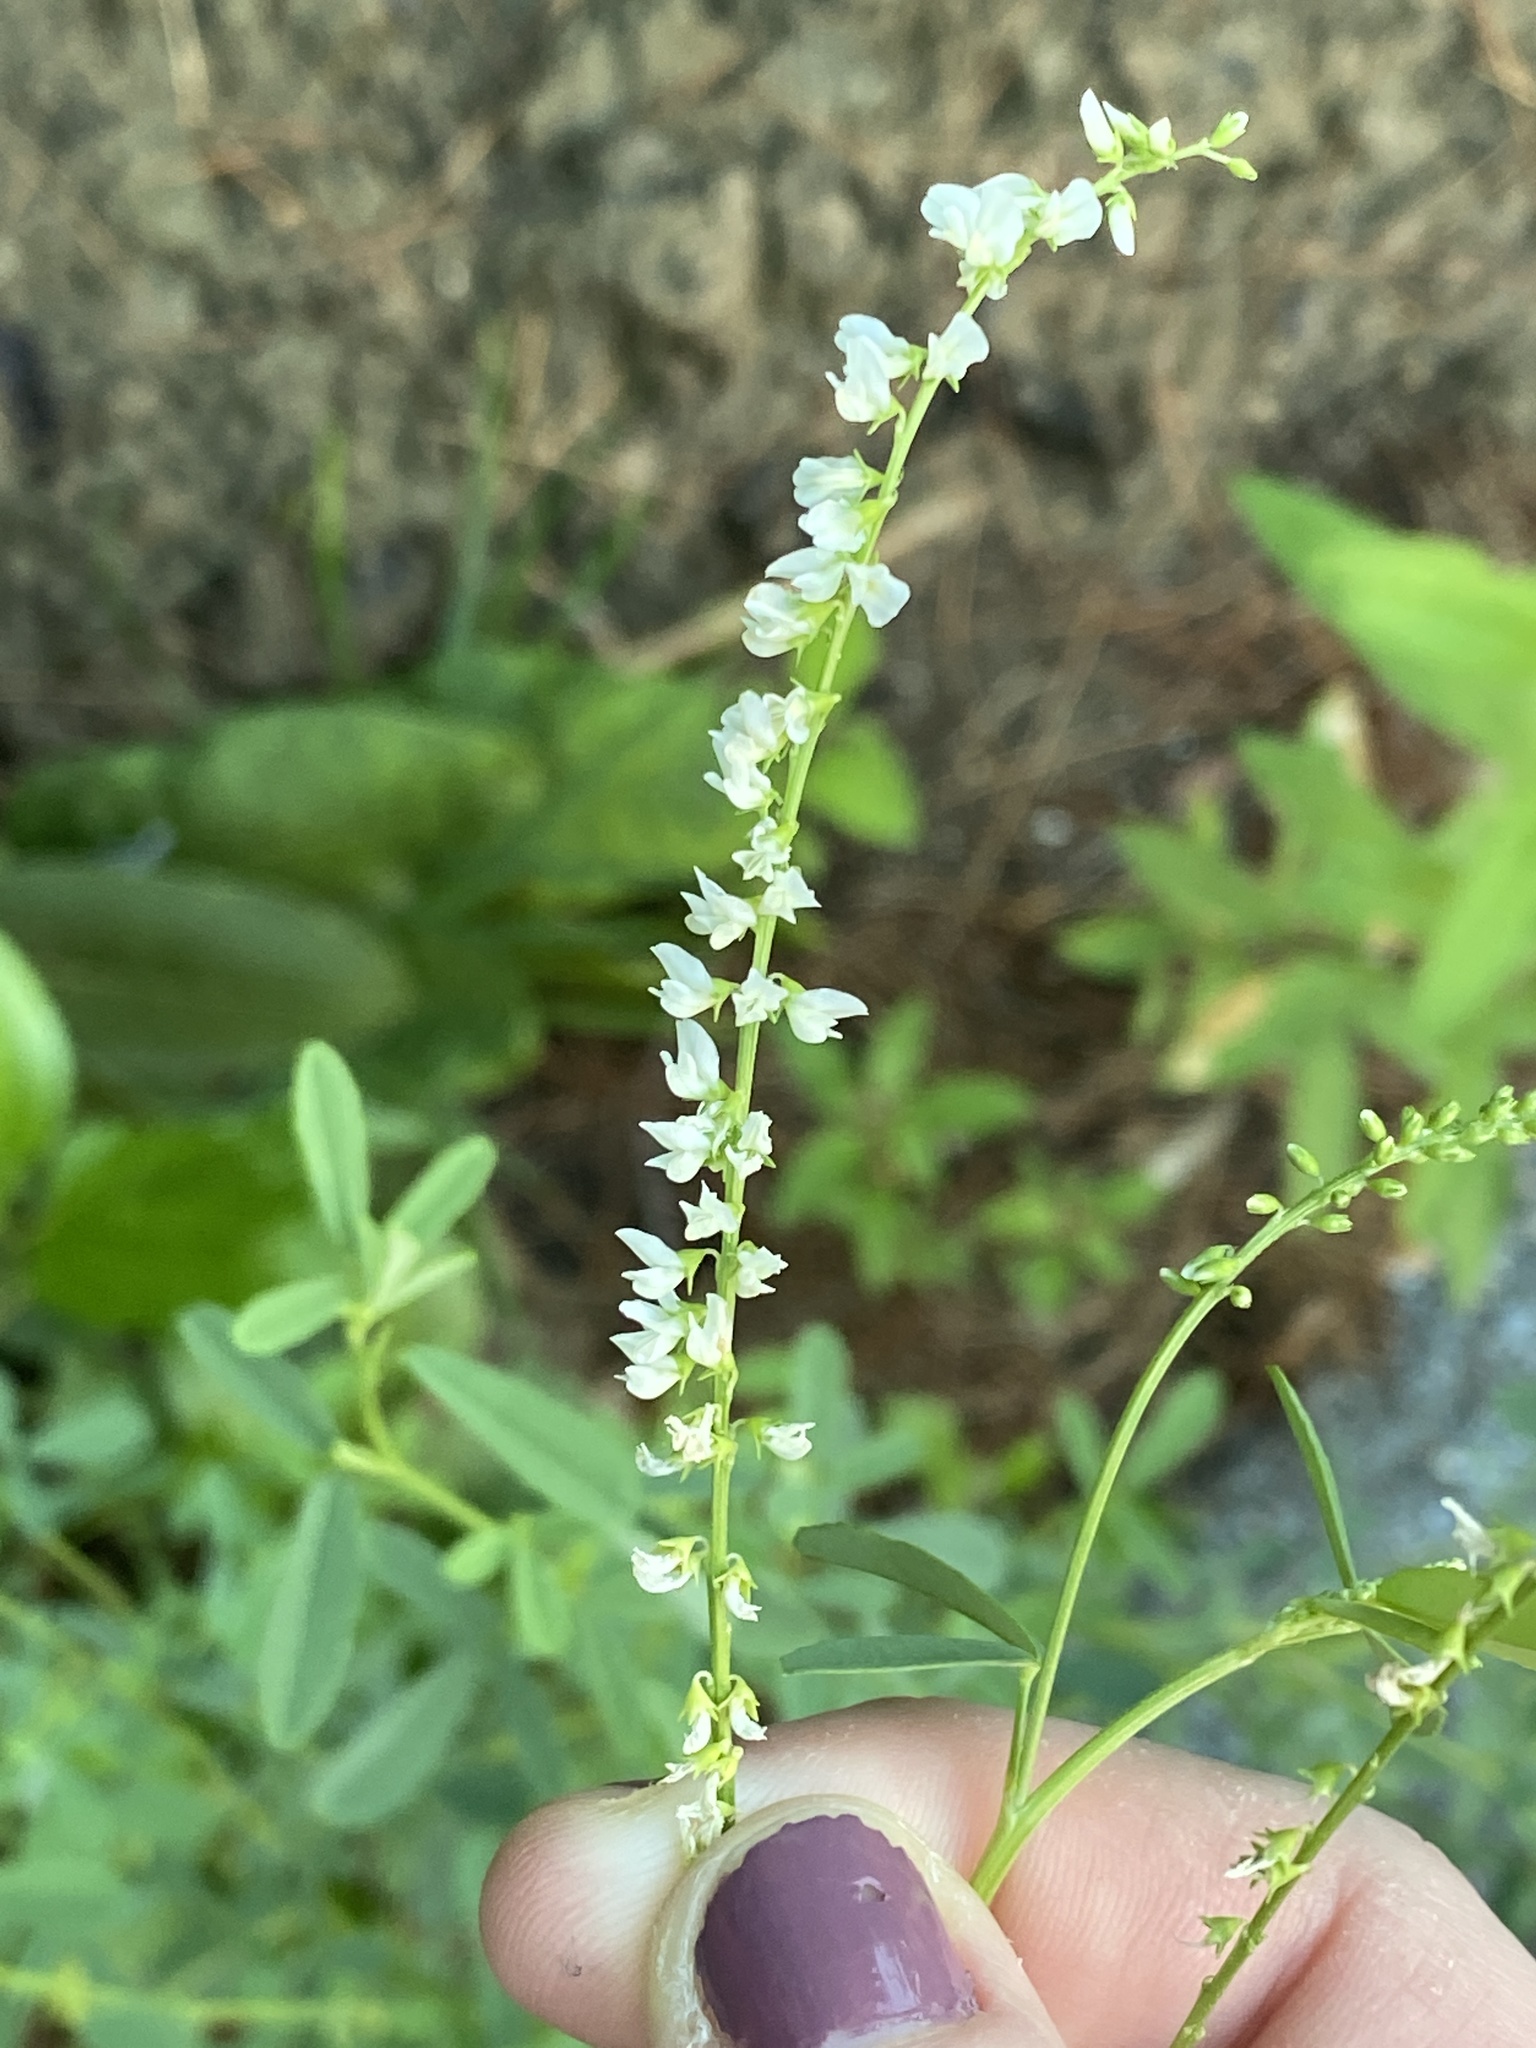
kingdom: Plantae
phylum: Tracheophyta
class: Magnoliopsida
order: Fabales
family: Fabaceae
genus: Melilotus
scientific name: Melilotus albus
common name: White melilot
